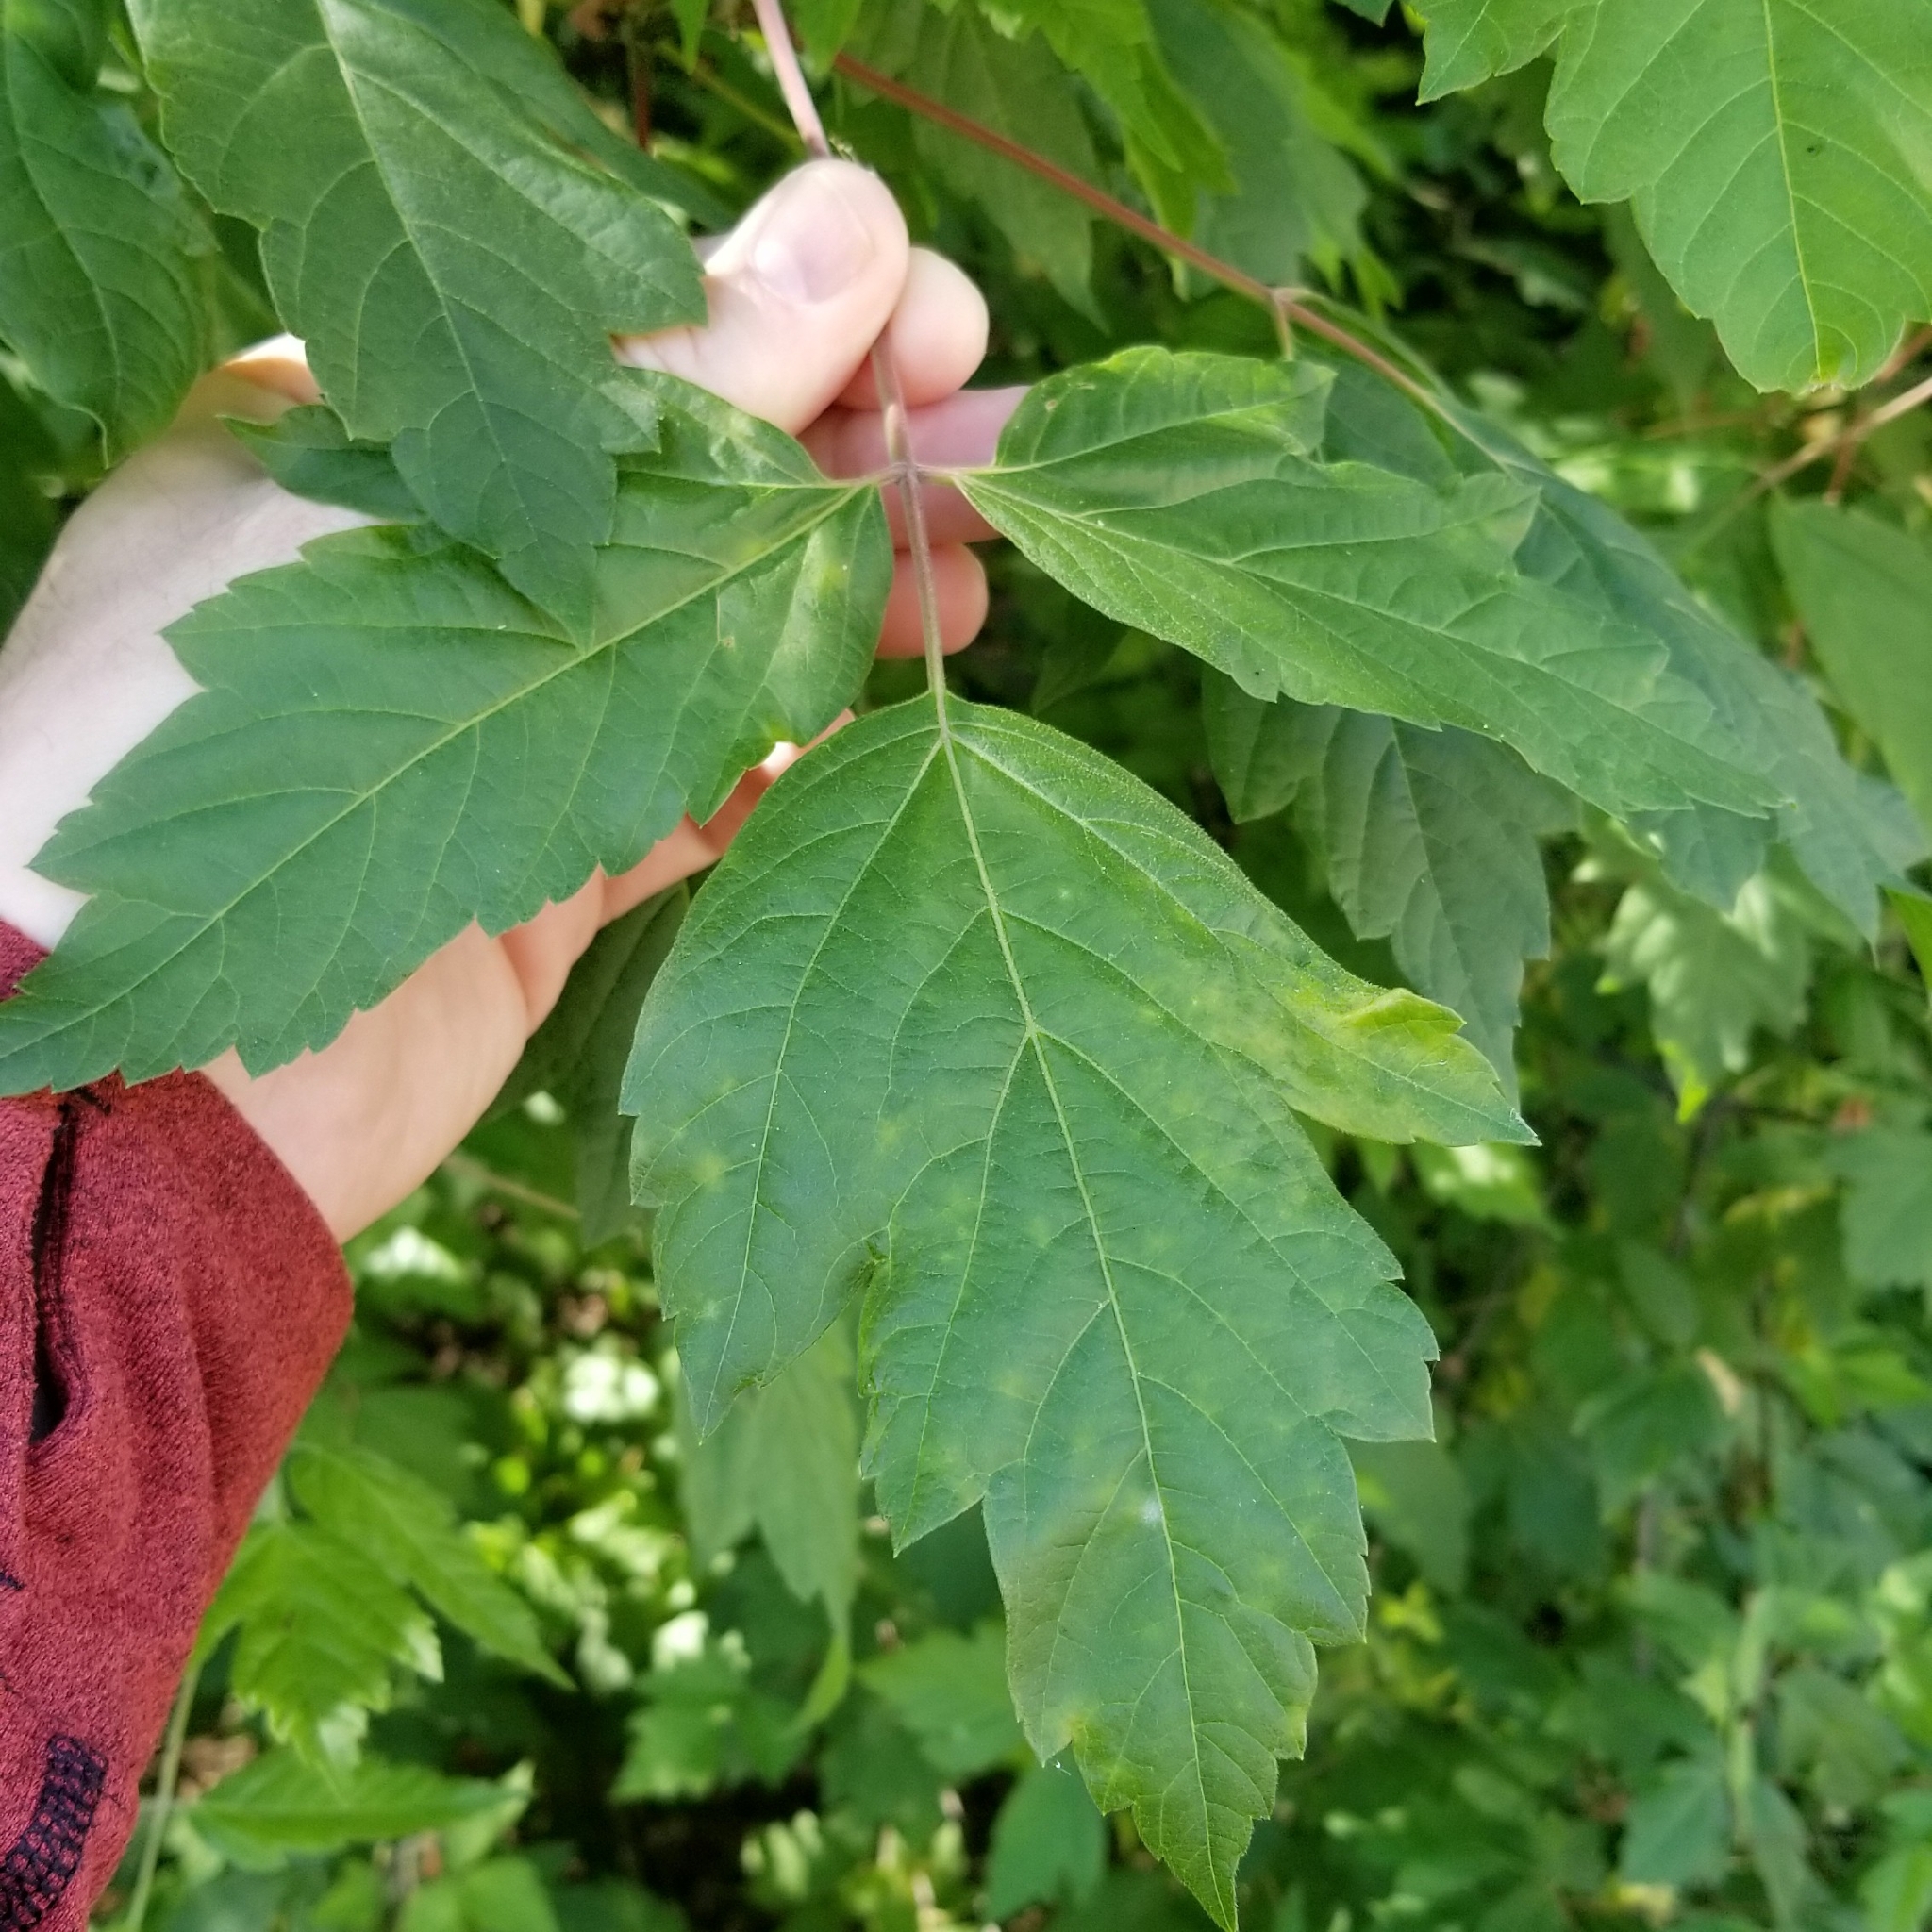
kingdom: Plantae
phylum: Tracheophyta
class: Magnoliopsida
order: Sapindales
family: Sapindaceae
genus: Acer
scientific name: Acer negundo
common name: Ashleaf maple
